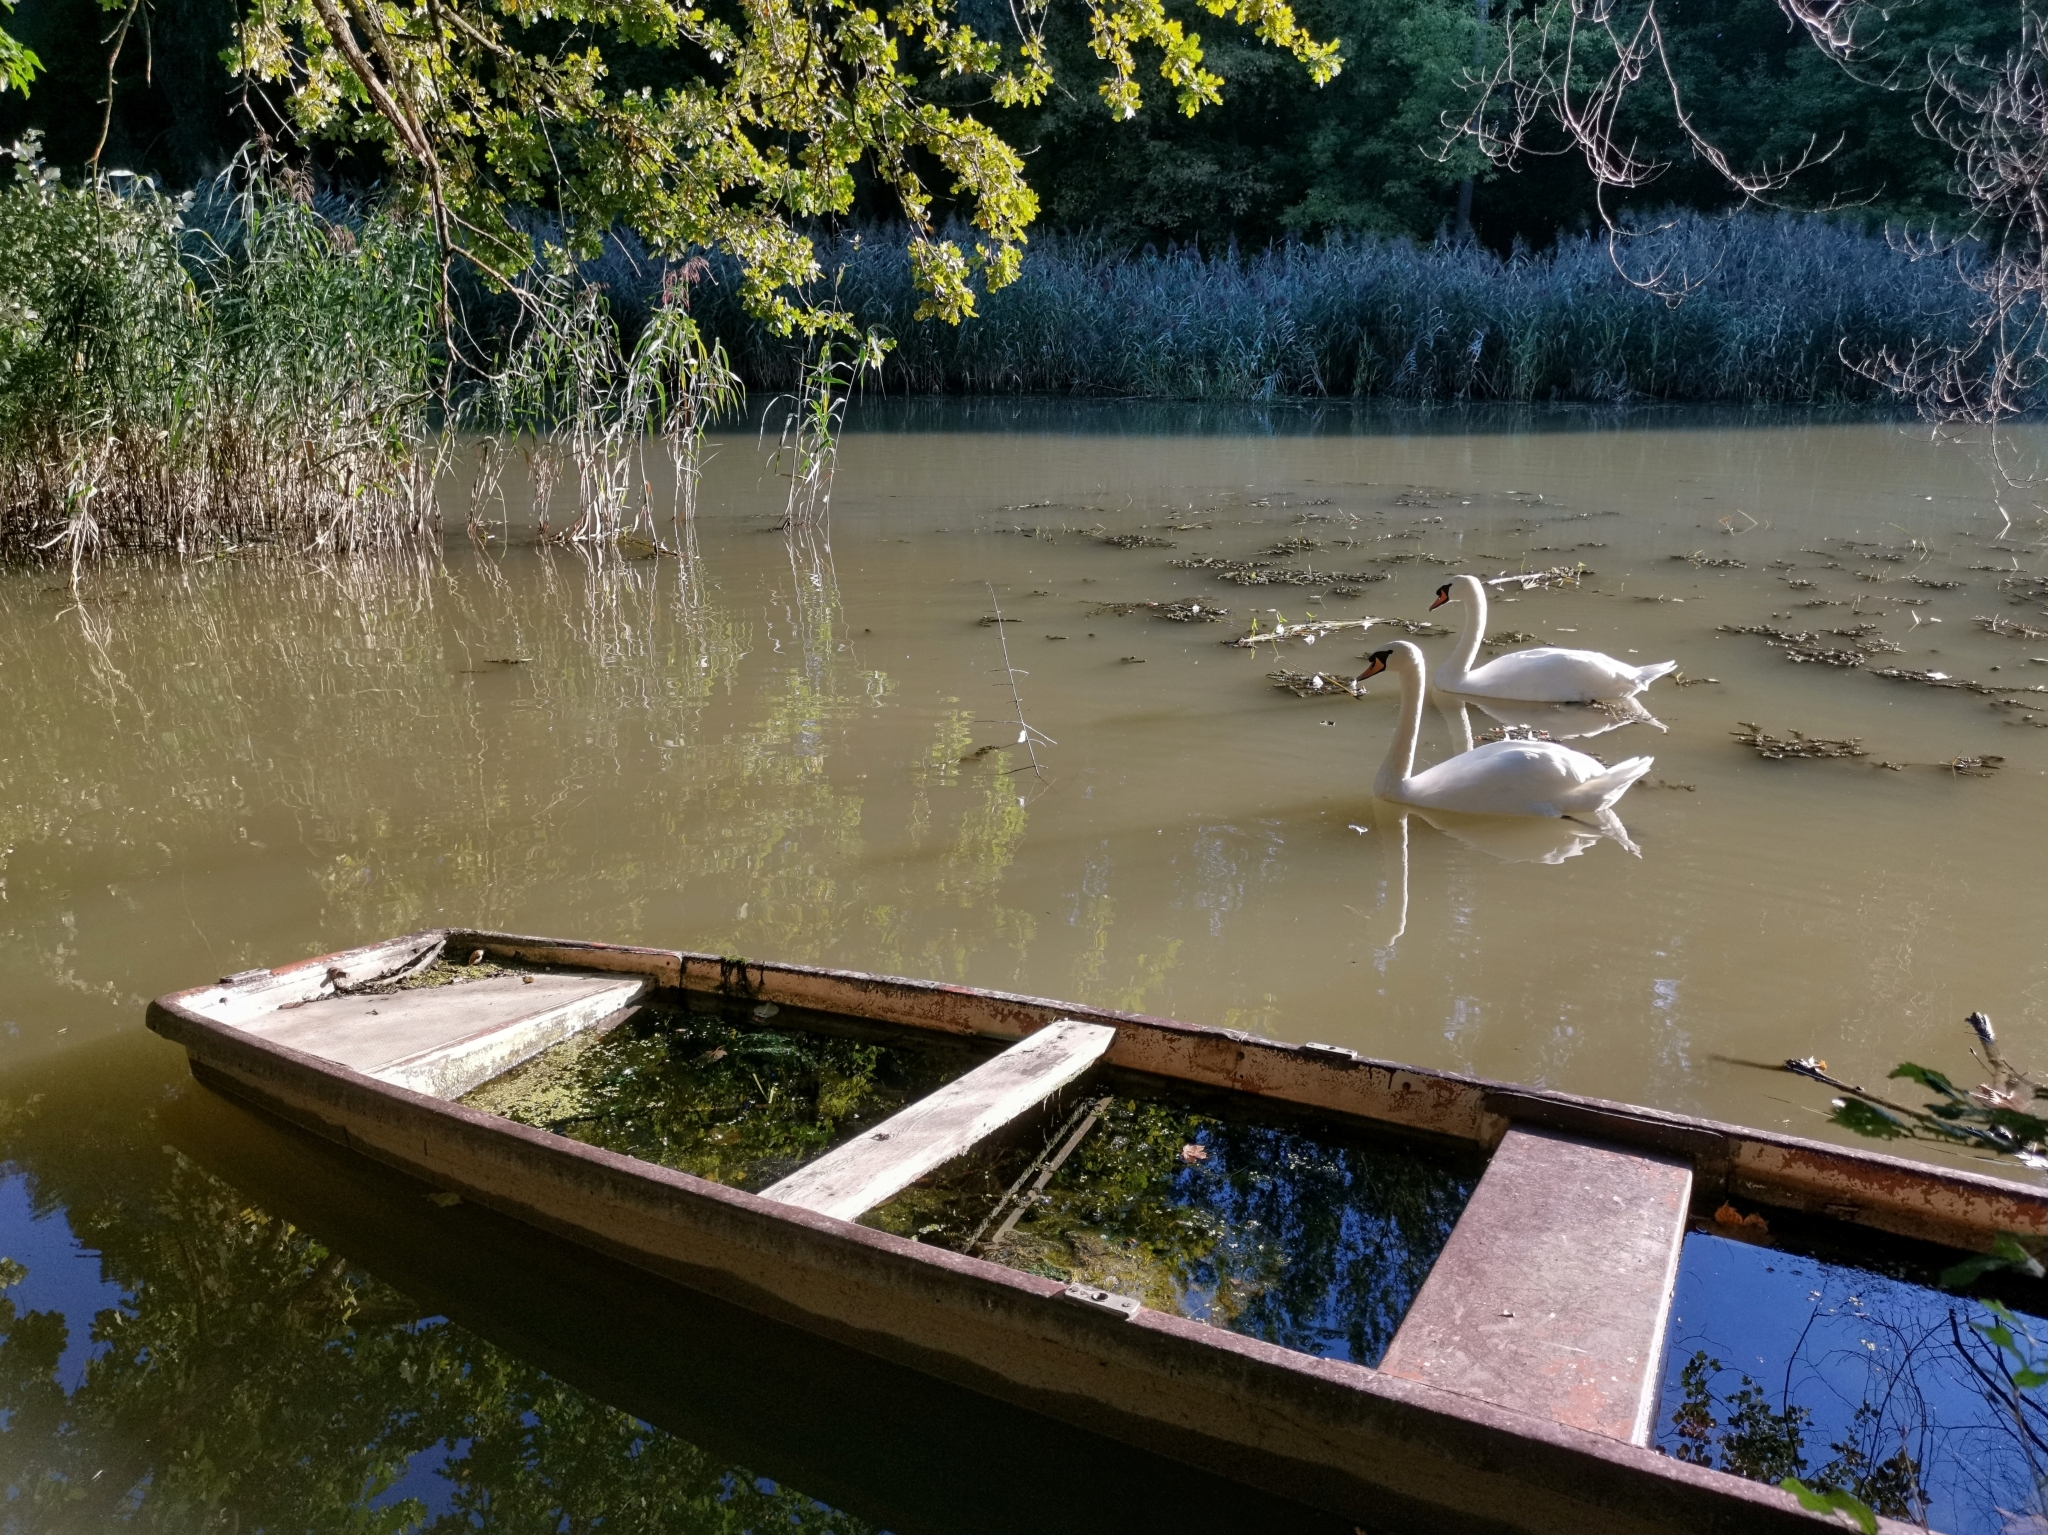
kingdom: Animalia
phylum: Chordata
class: Aves
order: Anseriformes
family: Anatidae
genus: Cygnus
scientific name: Cygnus olor
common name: Mute swan
